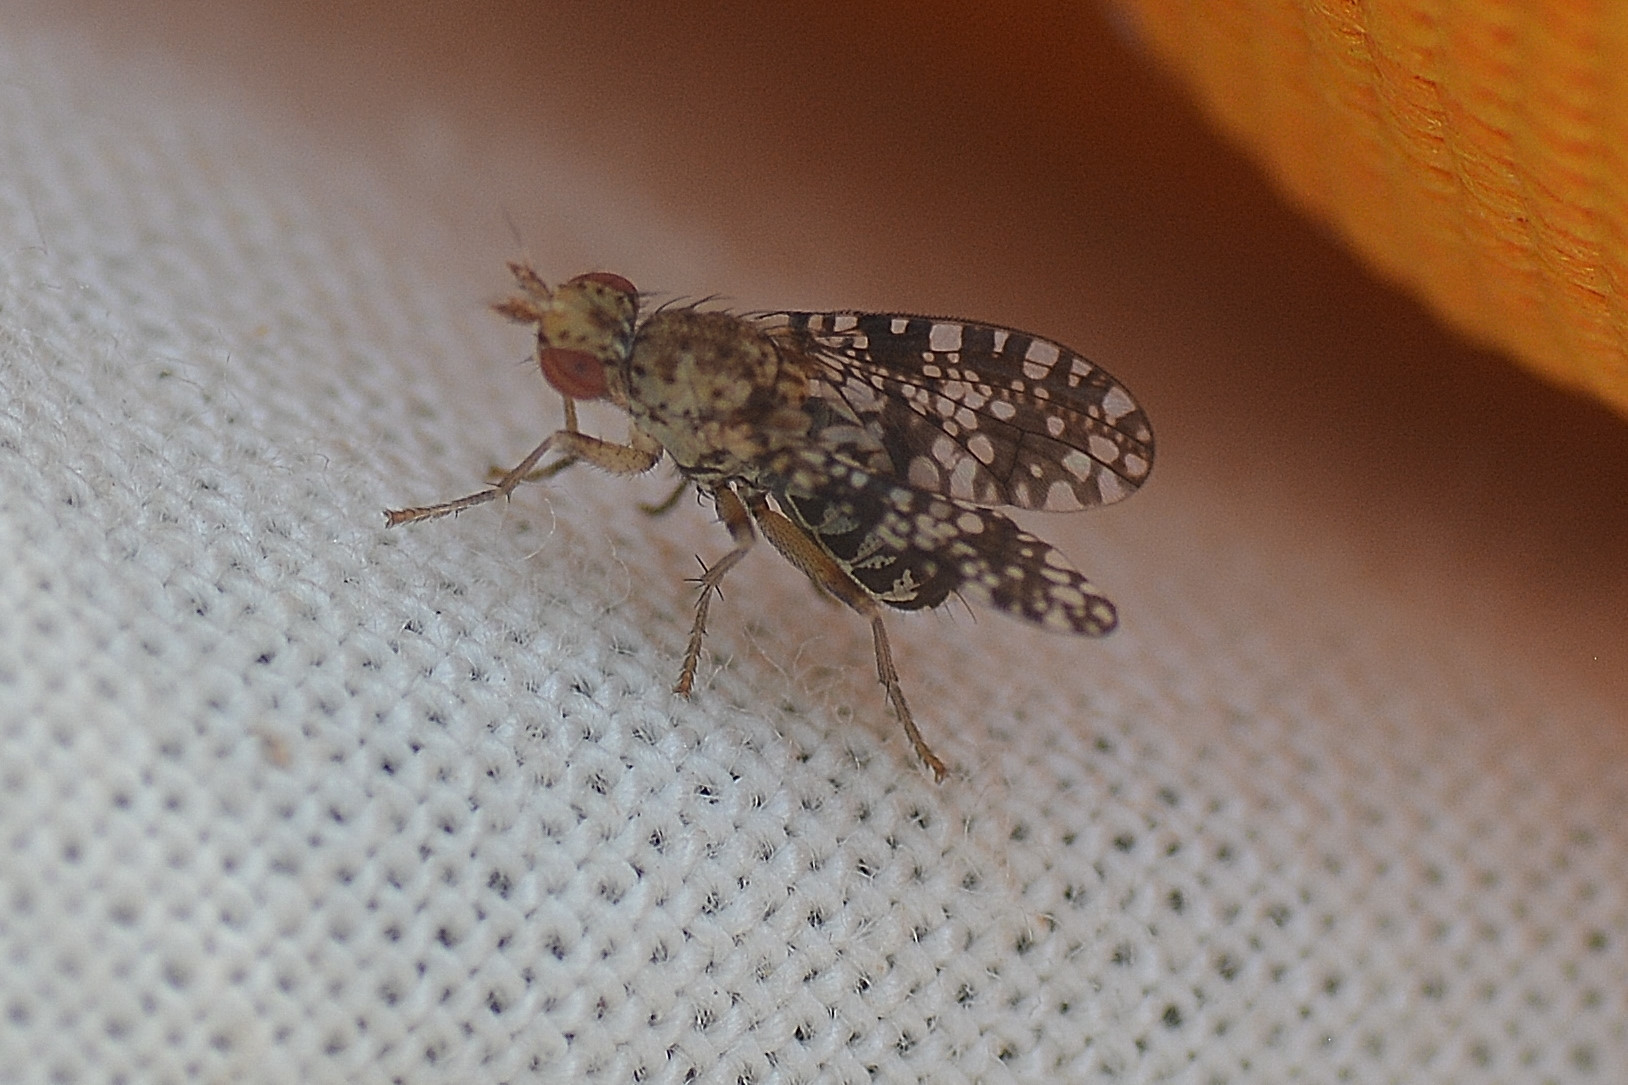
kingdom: Animalia
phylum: Arthropoda
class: Insecta
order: Diptera
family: Sciomyzidae
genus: Trypetoptera
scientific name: Trypetoptera punctulata
